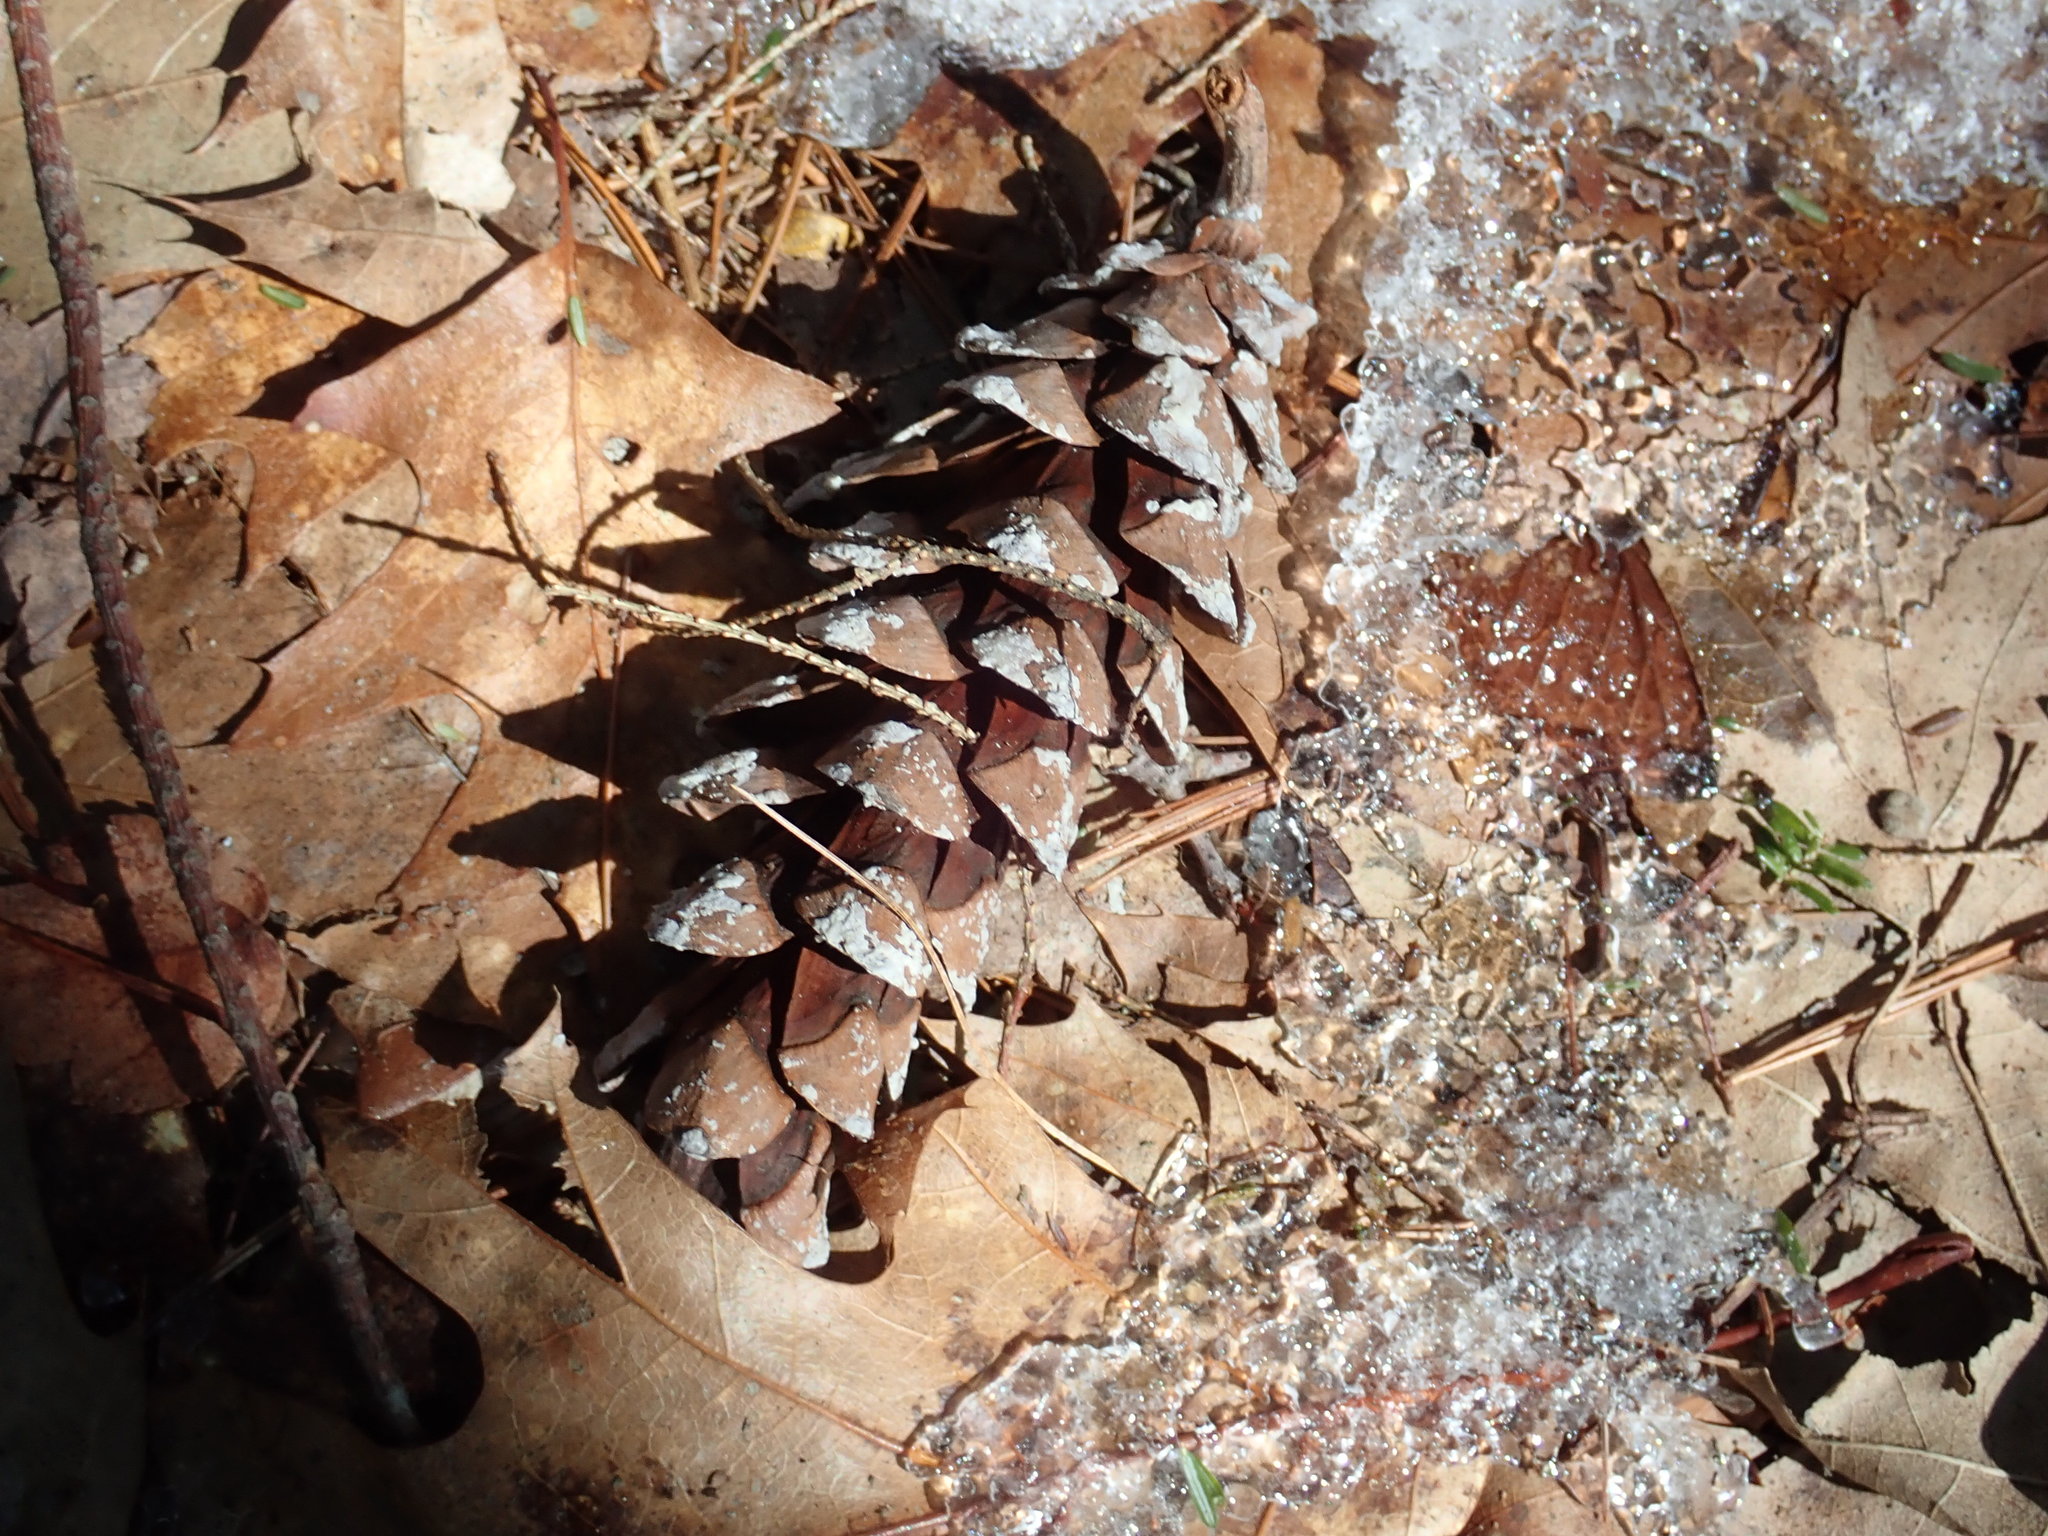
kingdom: Plantae
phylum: Tracheophyta
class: Pinopsida
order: Pinales
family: Pinaceae
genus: Pinus
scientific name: Pinus strobus
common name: Weymouth pine
